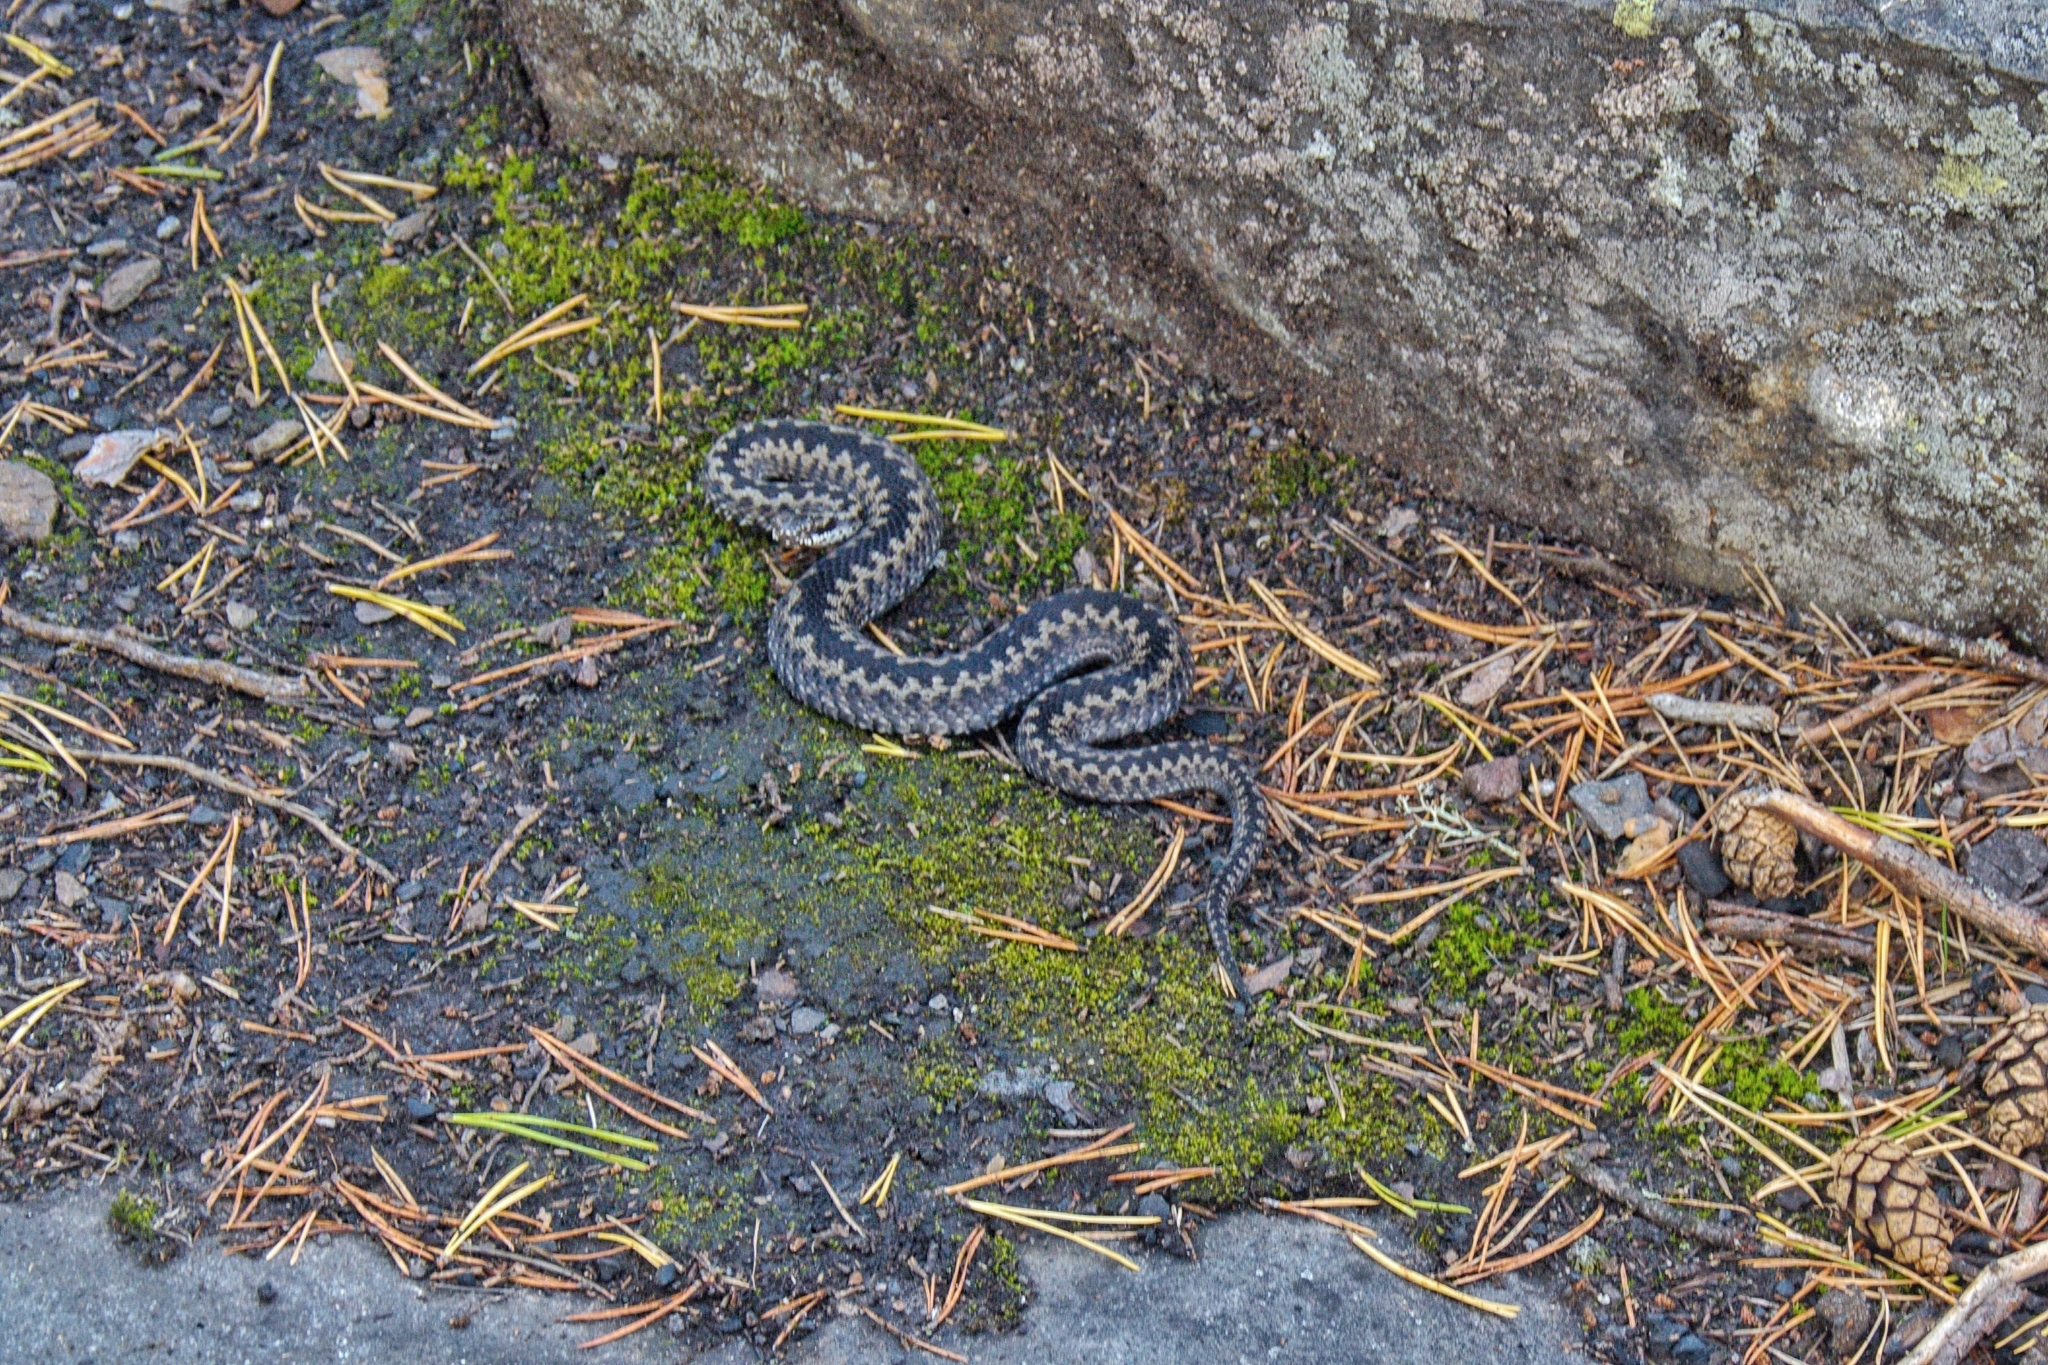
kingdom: Animalia
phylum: Chordata
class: Squamata
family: Viperidae
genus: Vipera
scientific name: Vipera berus
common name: Adder
